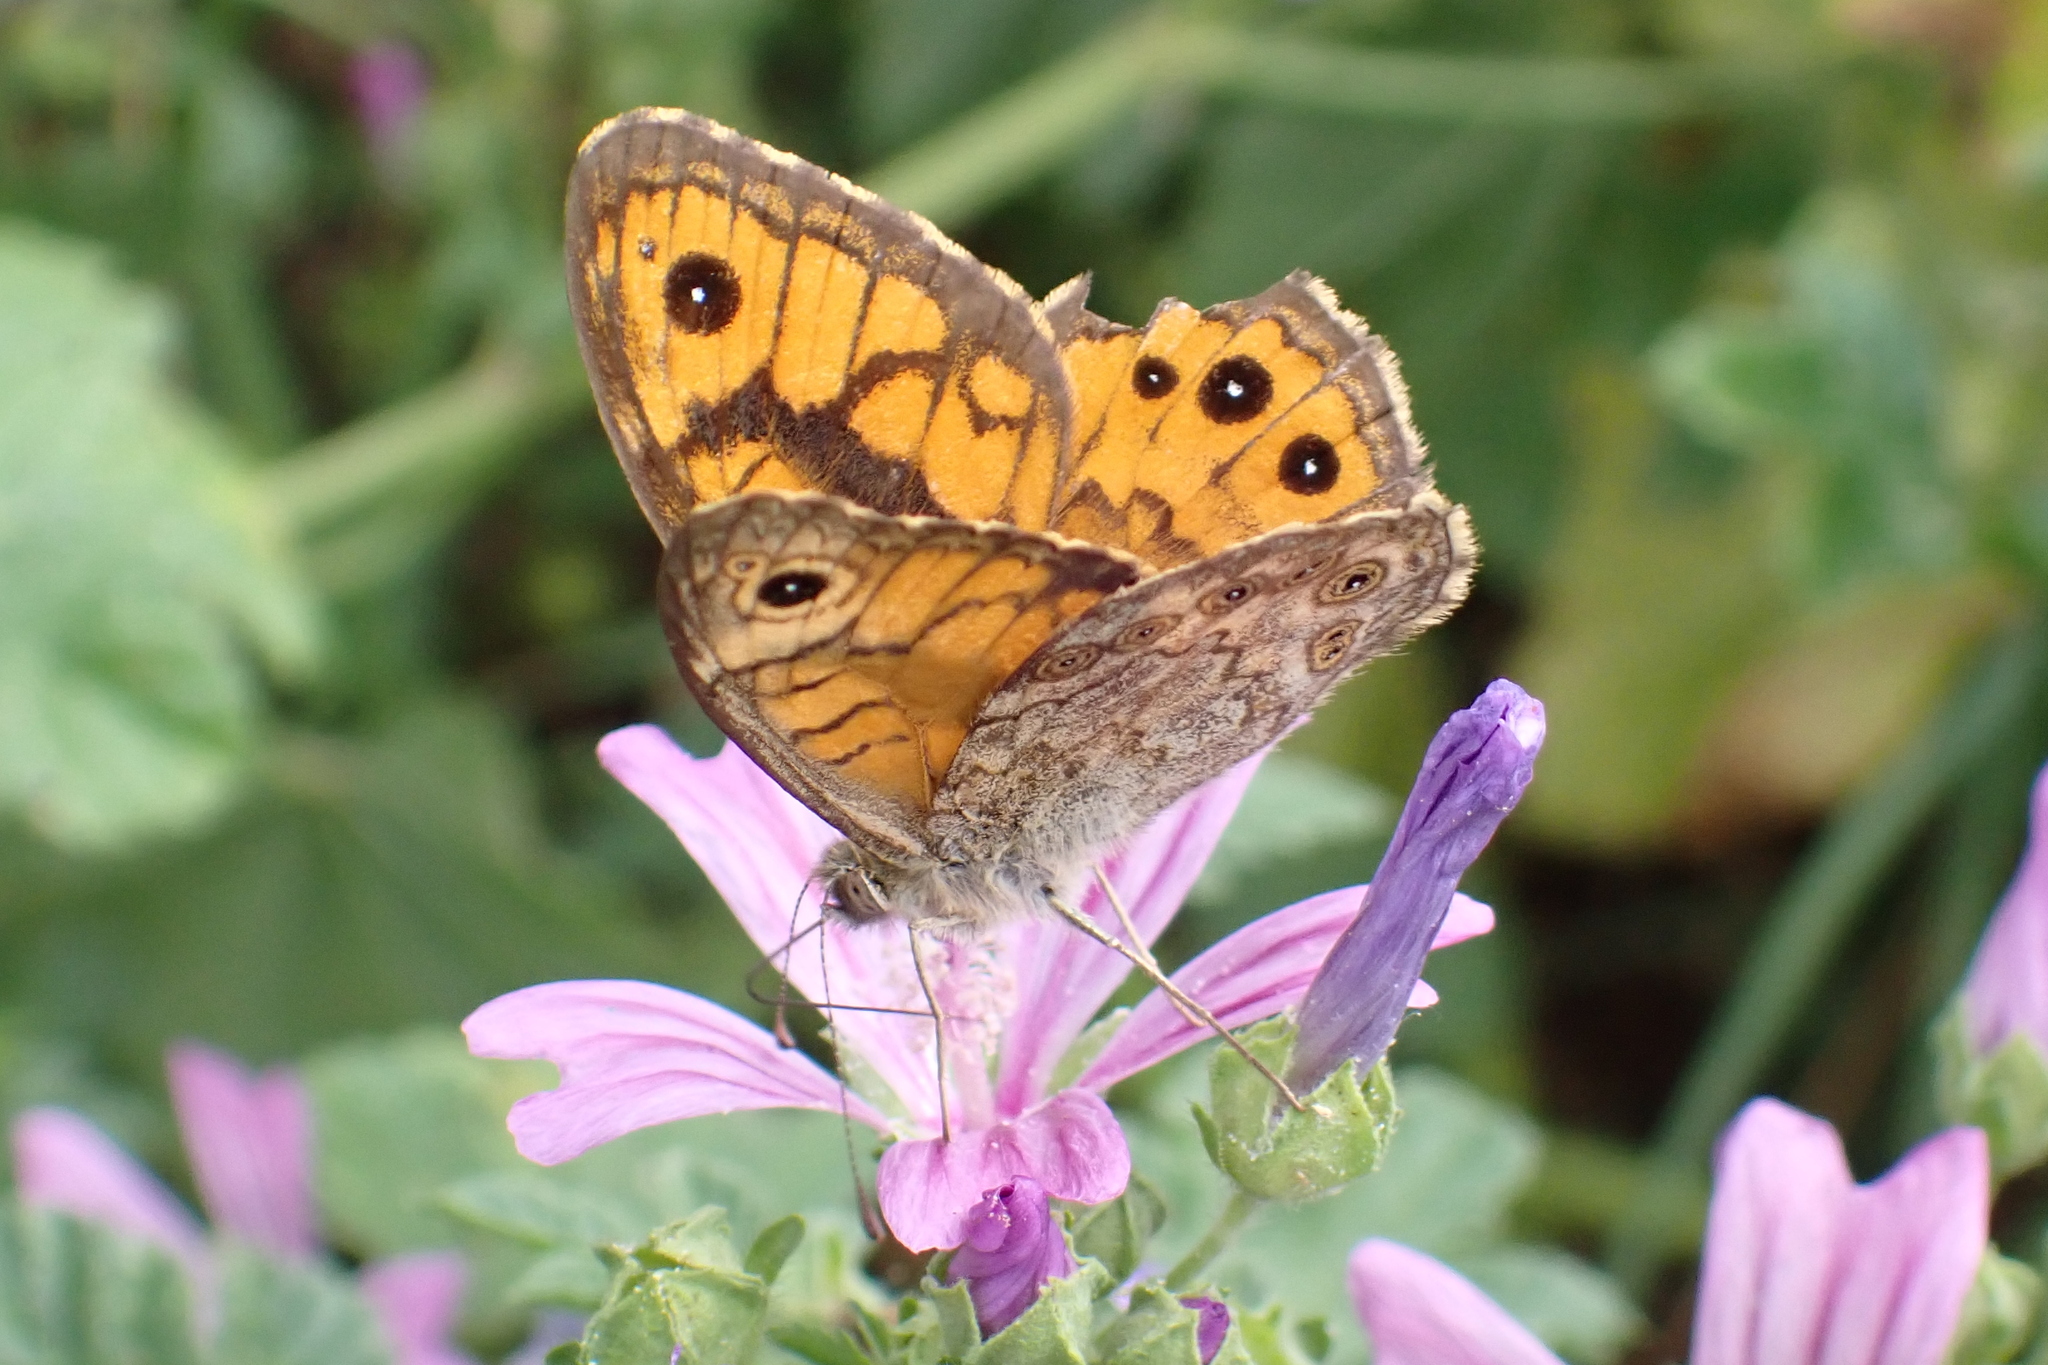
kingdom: Animalia
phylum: Arthropoda
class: Insecta
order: Lepidoptera
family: Nymphalidae
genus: Pararge
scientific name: Pararge Lasiommata megera
